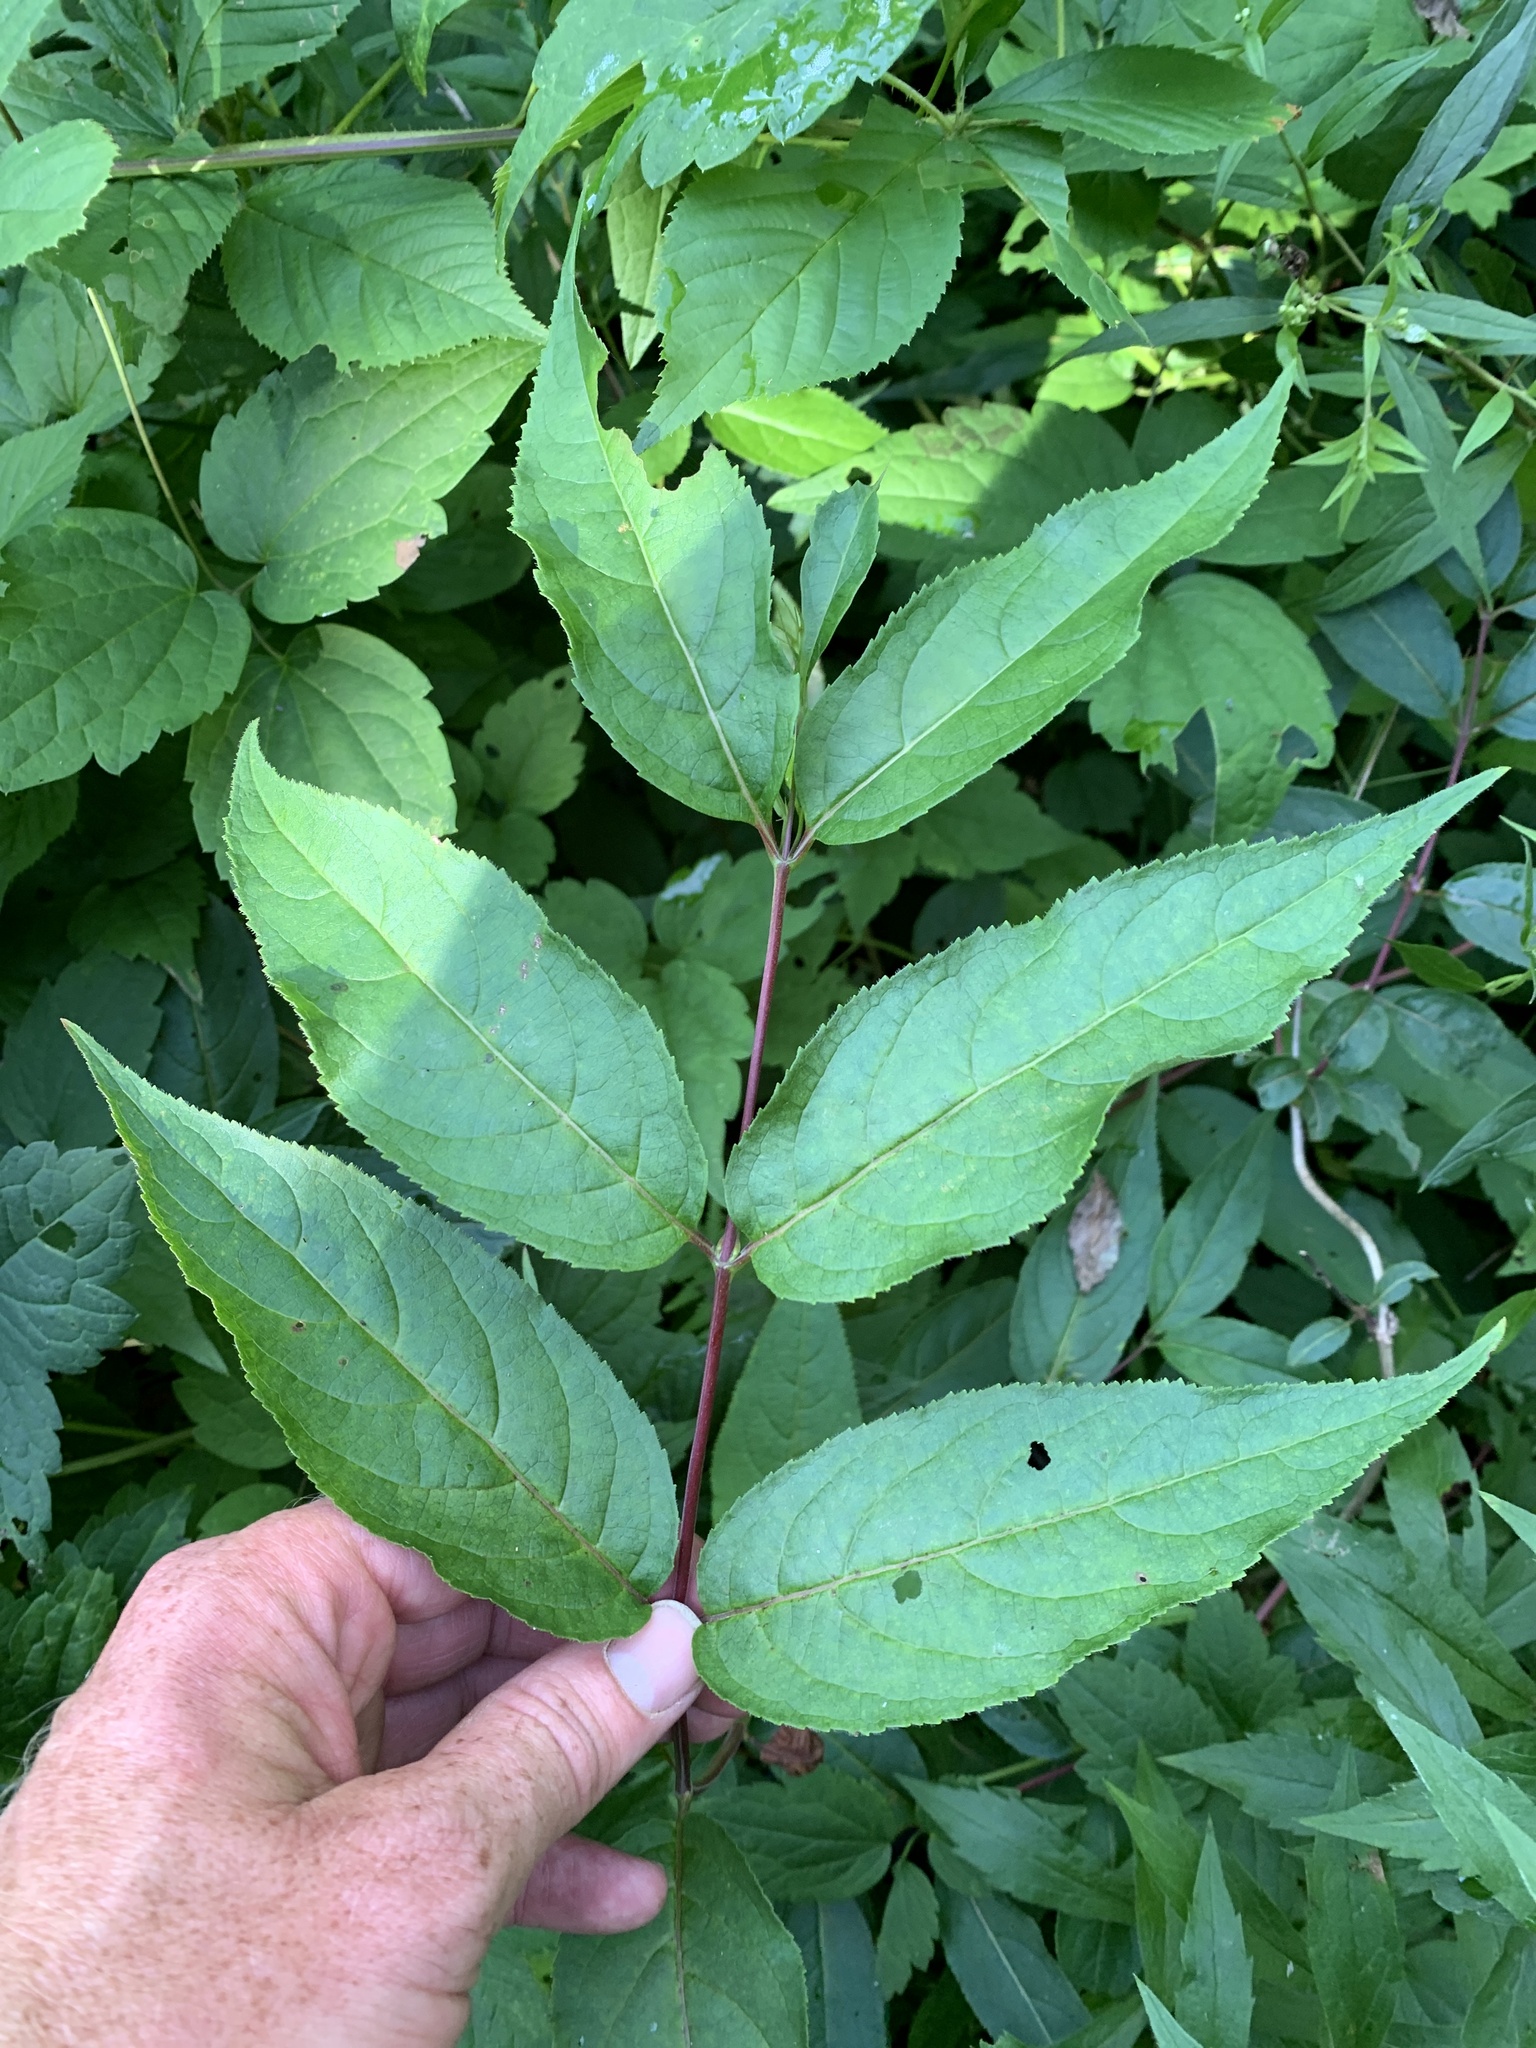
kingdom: Plantae
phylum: Tracheophyta
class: Magnoliopsida
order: Dipsacales
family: Caprifoliaceae
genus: Diervilla
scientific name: Diervilla lonicera
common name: Bush-honeysuckle
